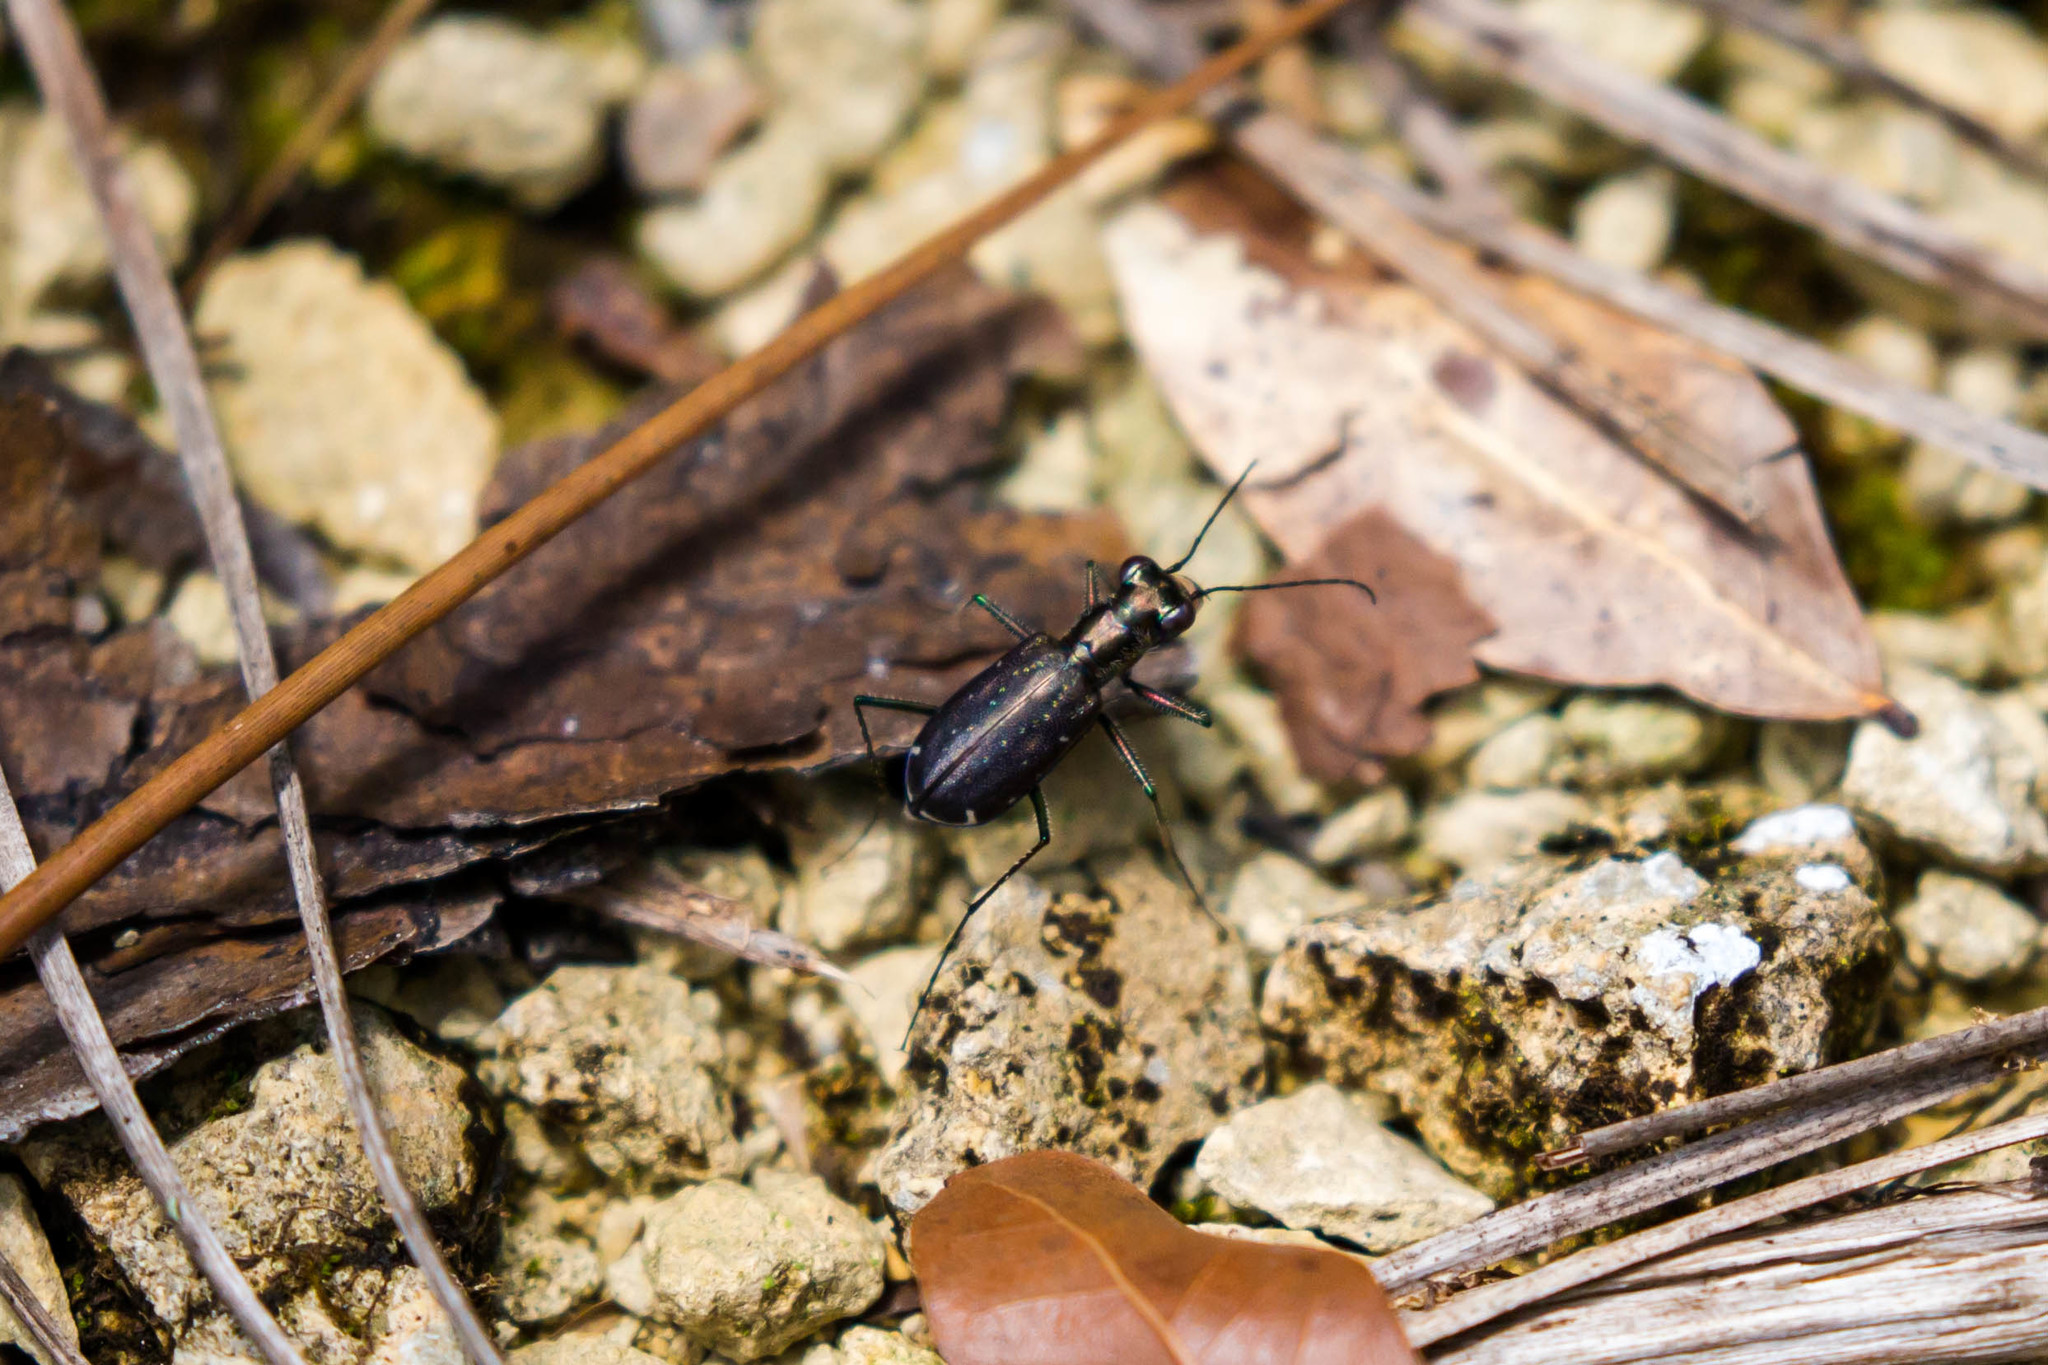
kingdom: Animalia
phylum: Arthropoda
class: Insecta
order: Coleoptera
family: Carabidae
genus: Cicindela
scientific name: Cicindela punctulata
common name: Punctured tiger beetle
